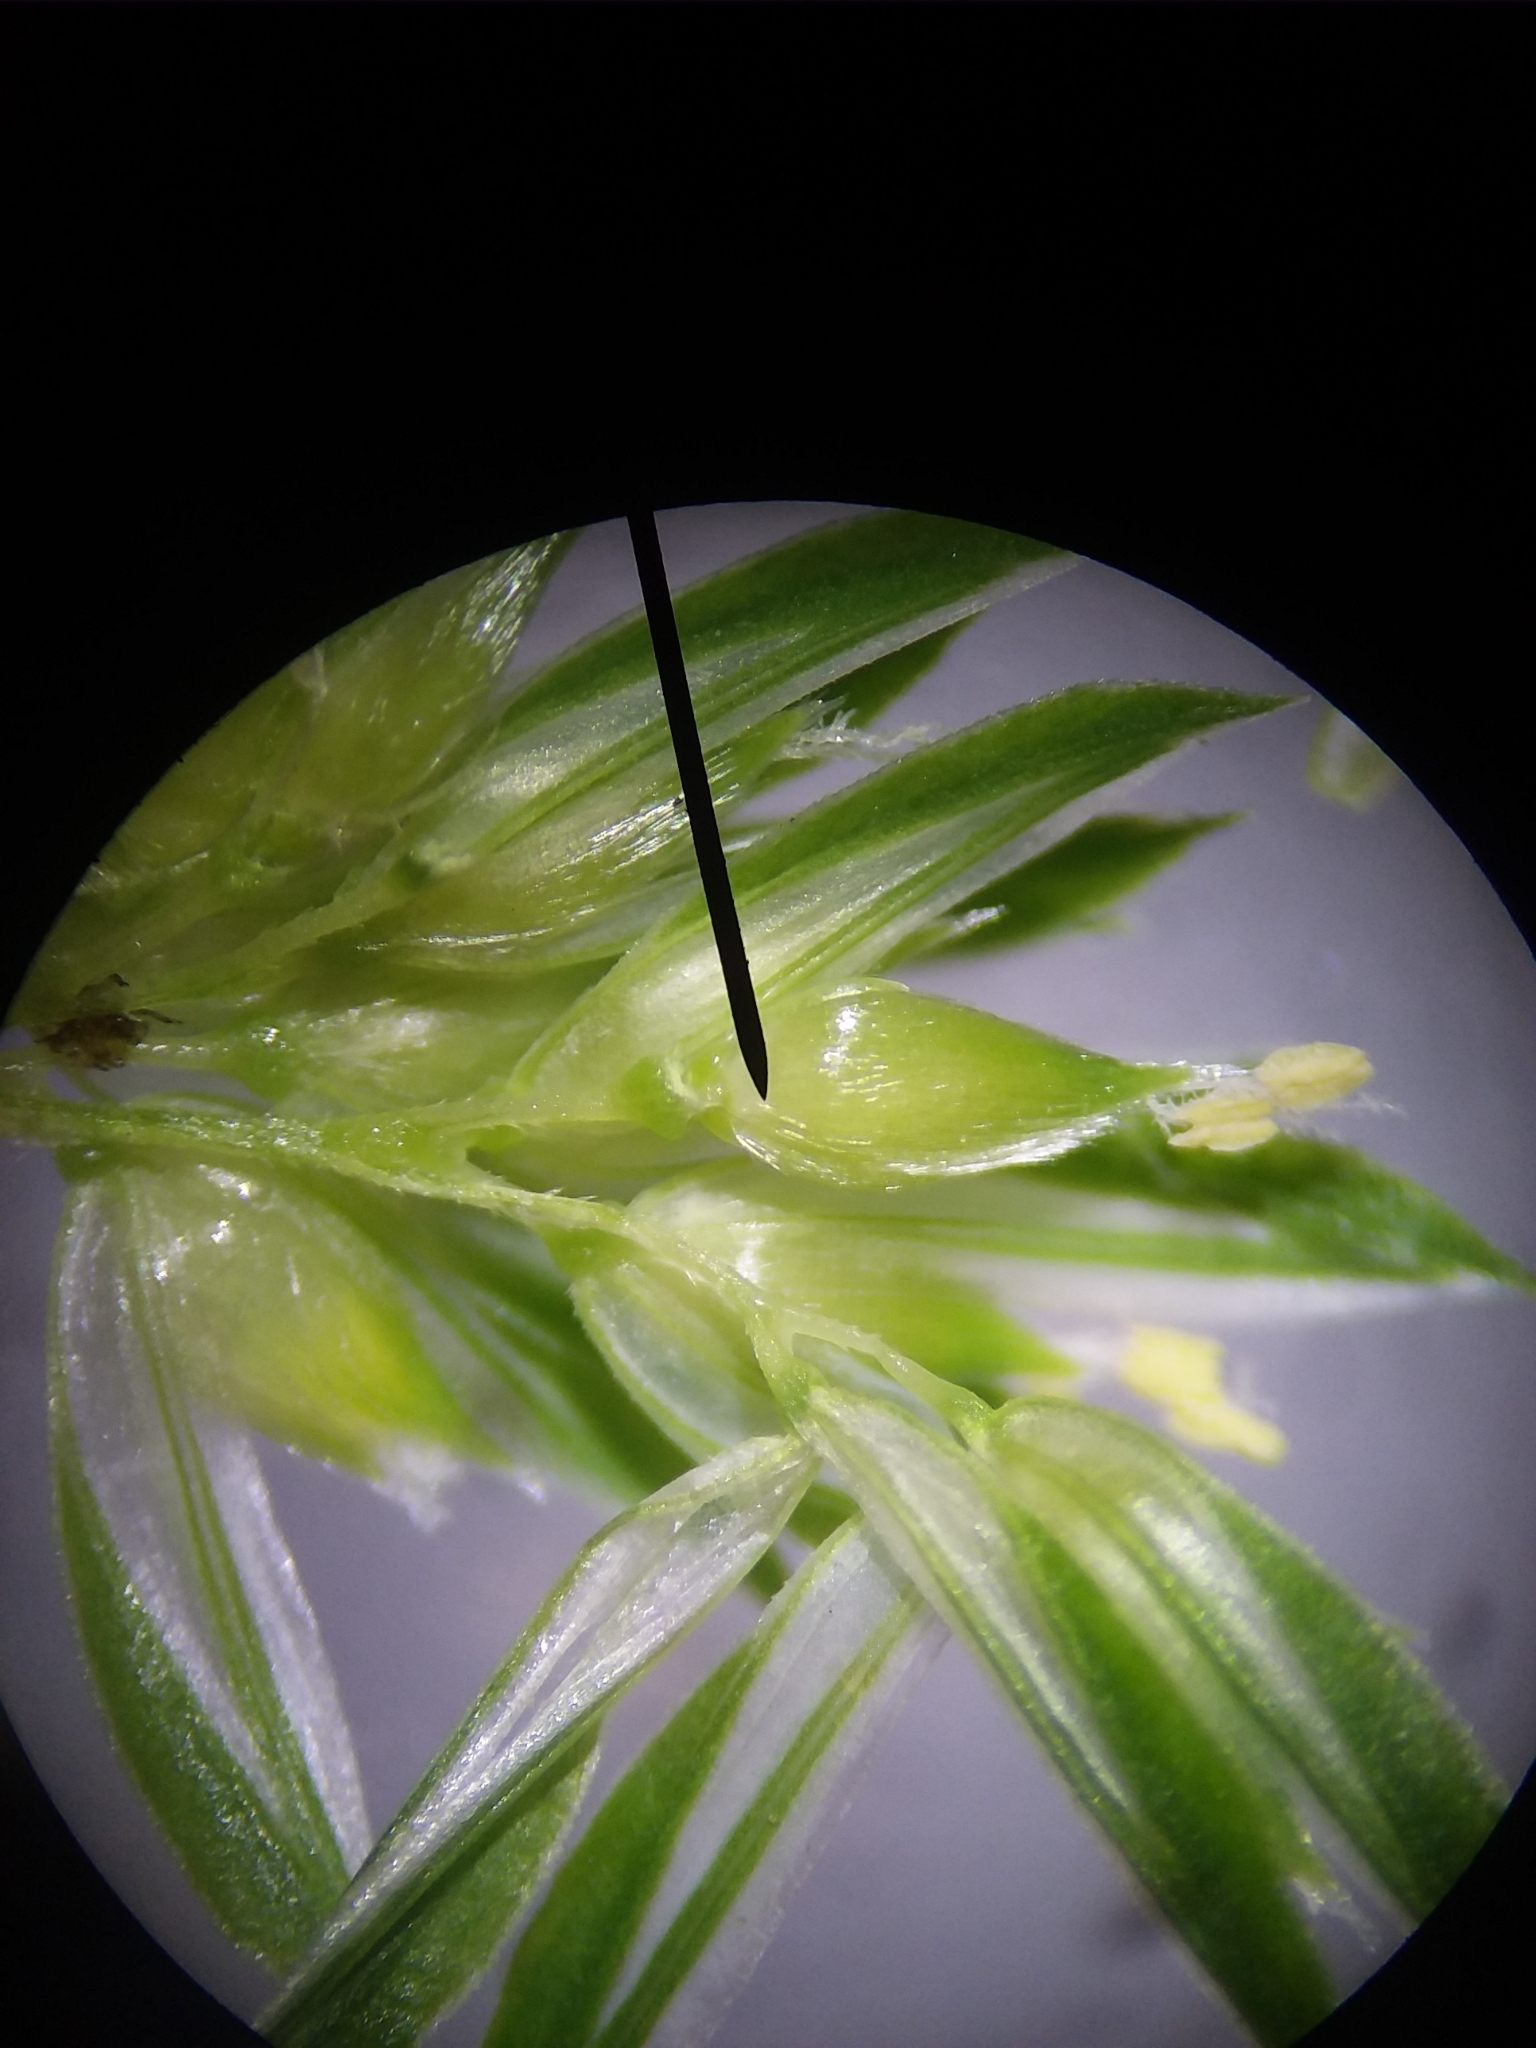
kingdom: Plantae
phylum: Tracheophyta
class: Liliopsida
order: Poales
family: Poaceae
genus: Phalaris
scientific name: Phalaris caroliniana
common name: May grass
